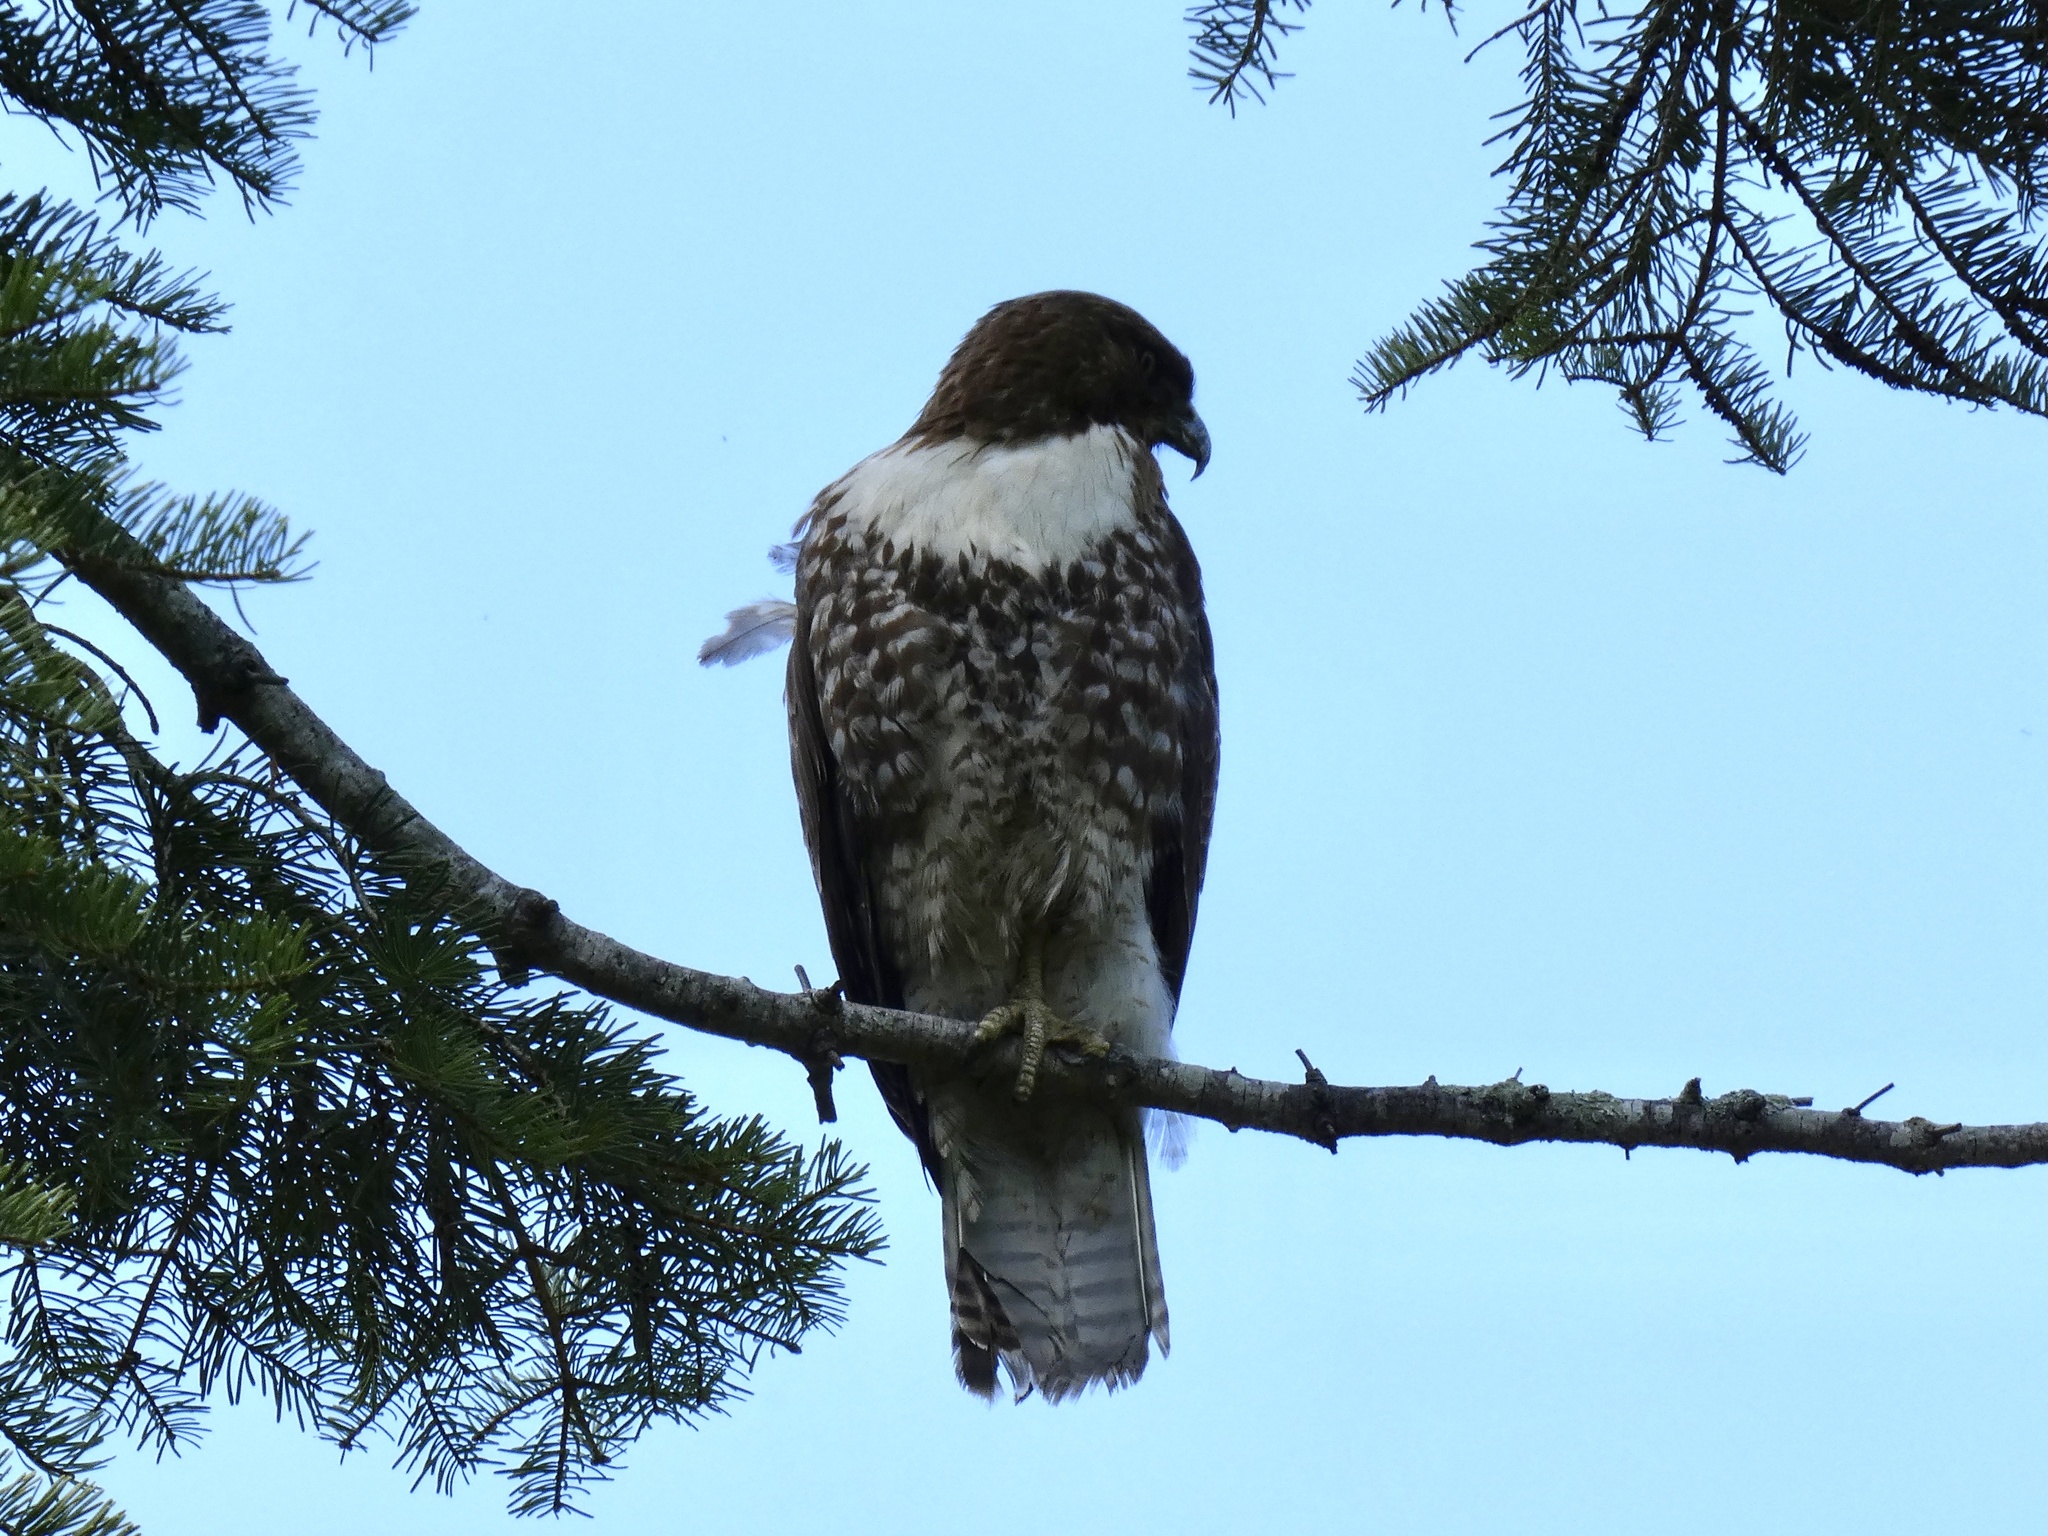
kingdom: Animalia
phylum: Chordata
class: Aves
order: Accipitriformes
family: Accipitridae
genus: Buteo
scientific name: Buteo jamaicensis
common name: Red-tailed hawk
